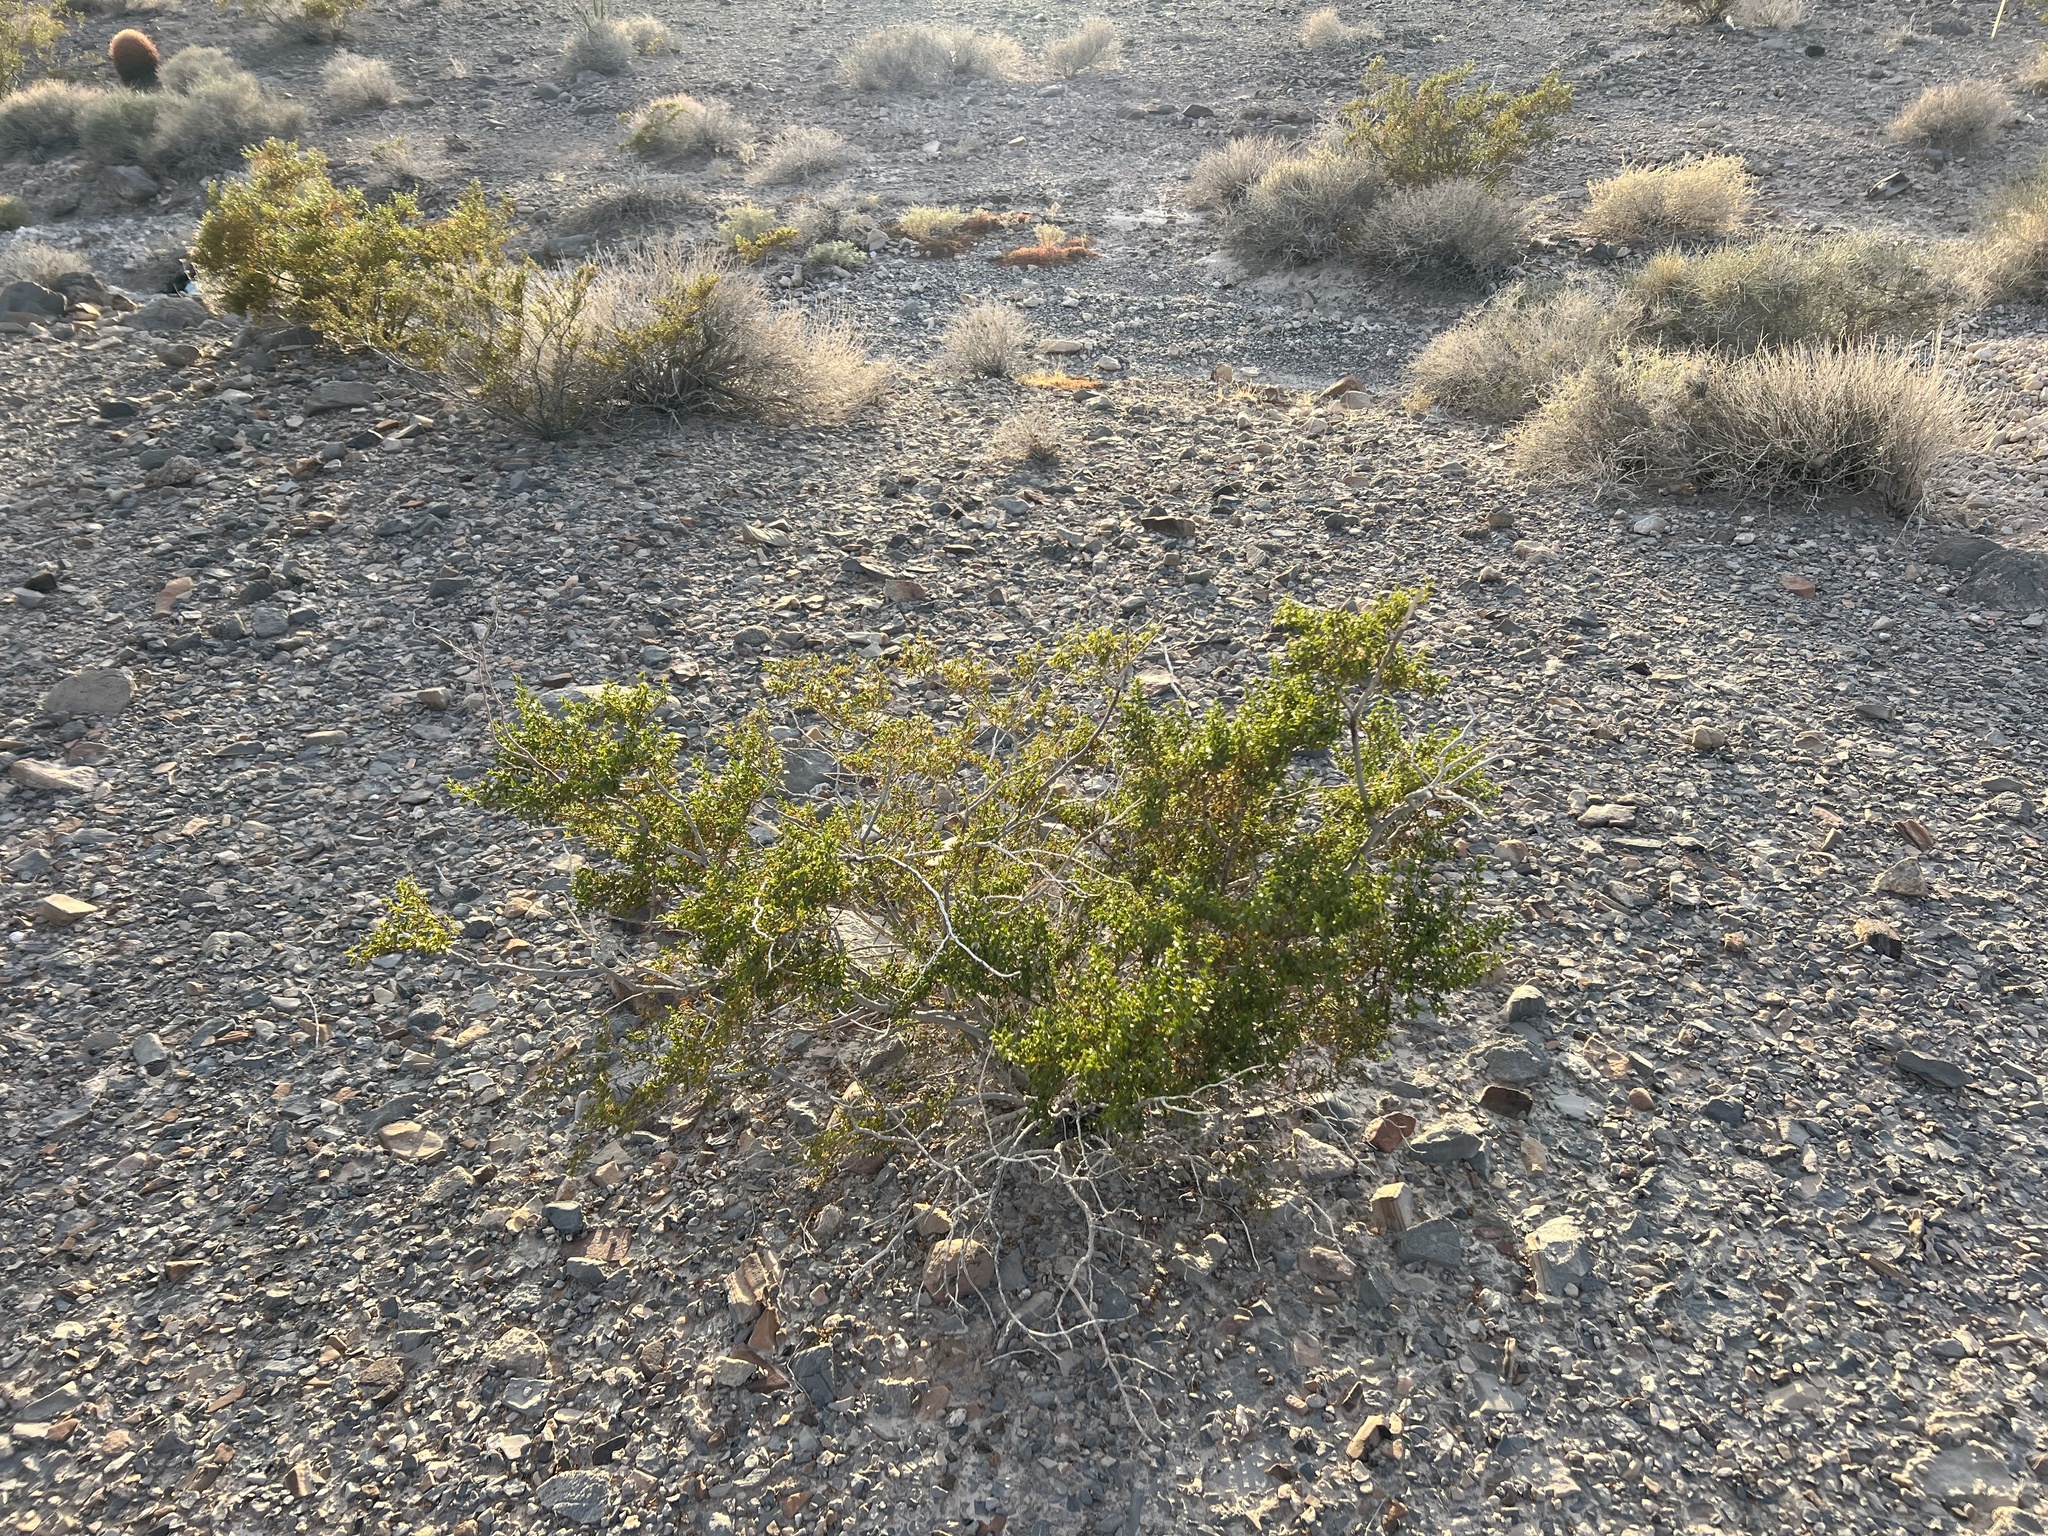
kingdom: Plantae
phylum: Tracheophyta
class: Magnoliopsida
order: Zygophyllales
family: Zygophyllaceae
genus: Larrea
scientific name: Larrea tridentata
